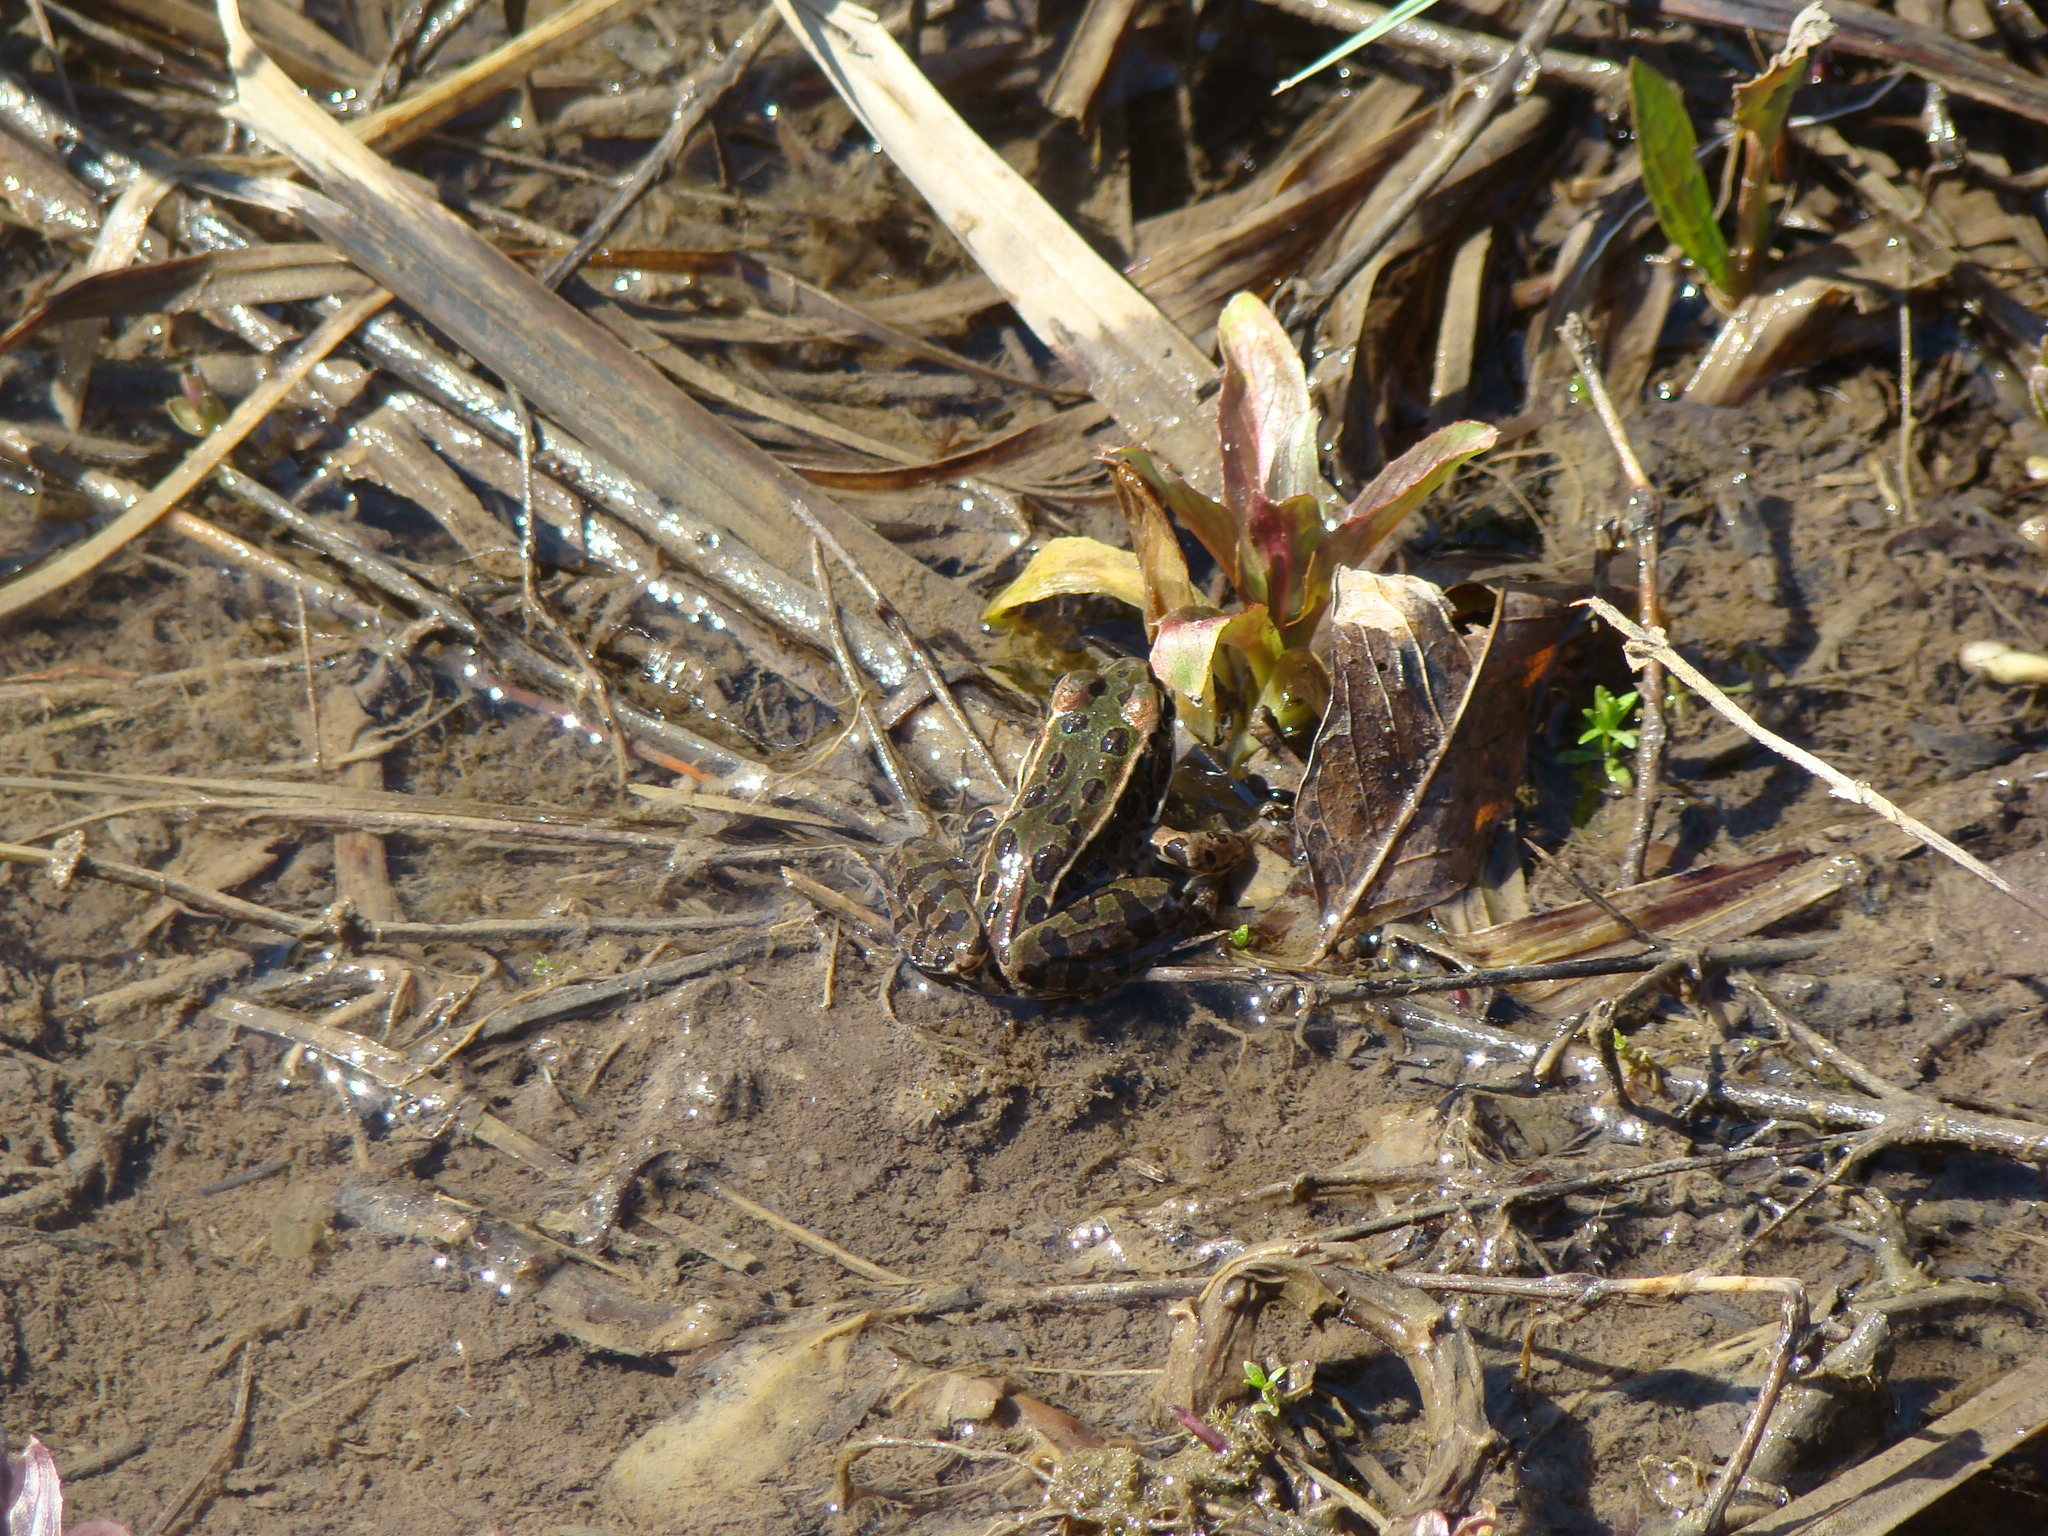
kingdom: Animalia
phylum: Chordata
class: Amphibia
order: Anura
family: Ranidae
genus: Lithobates
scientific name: Lithobates pipiens
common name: Northern leopard frog
